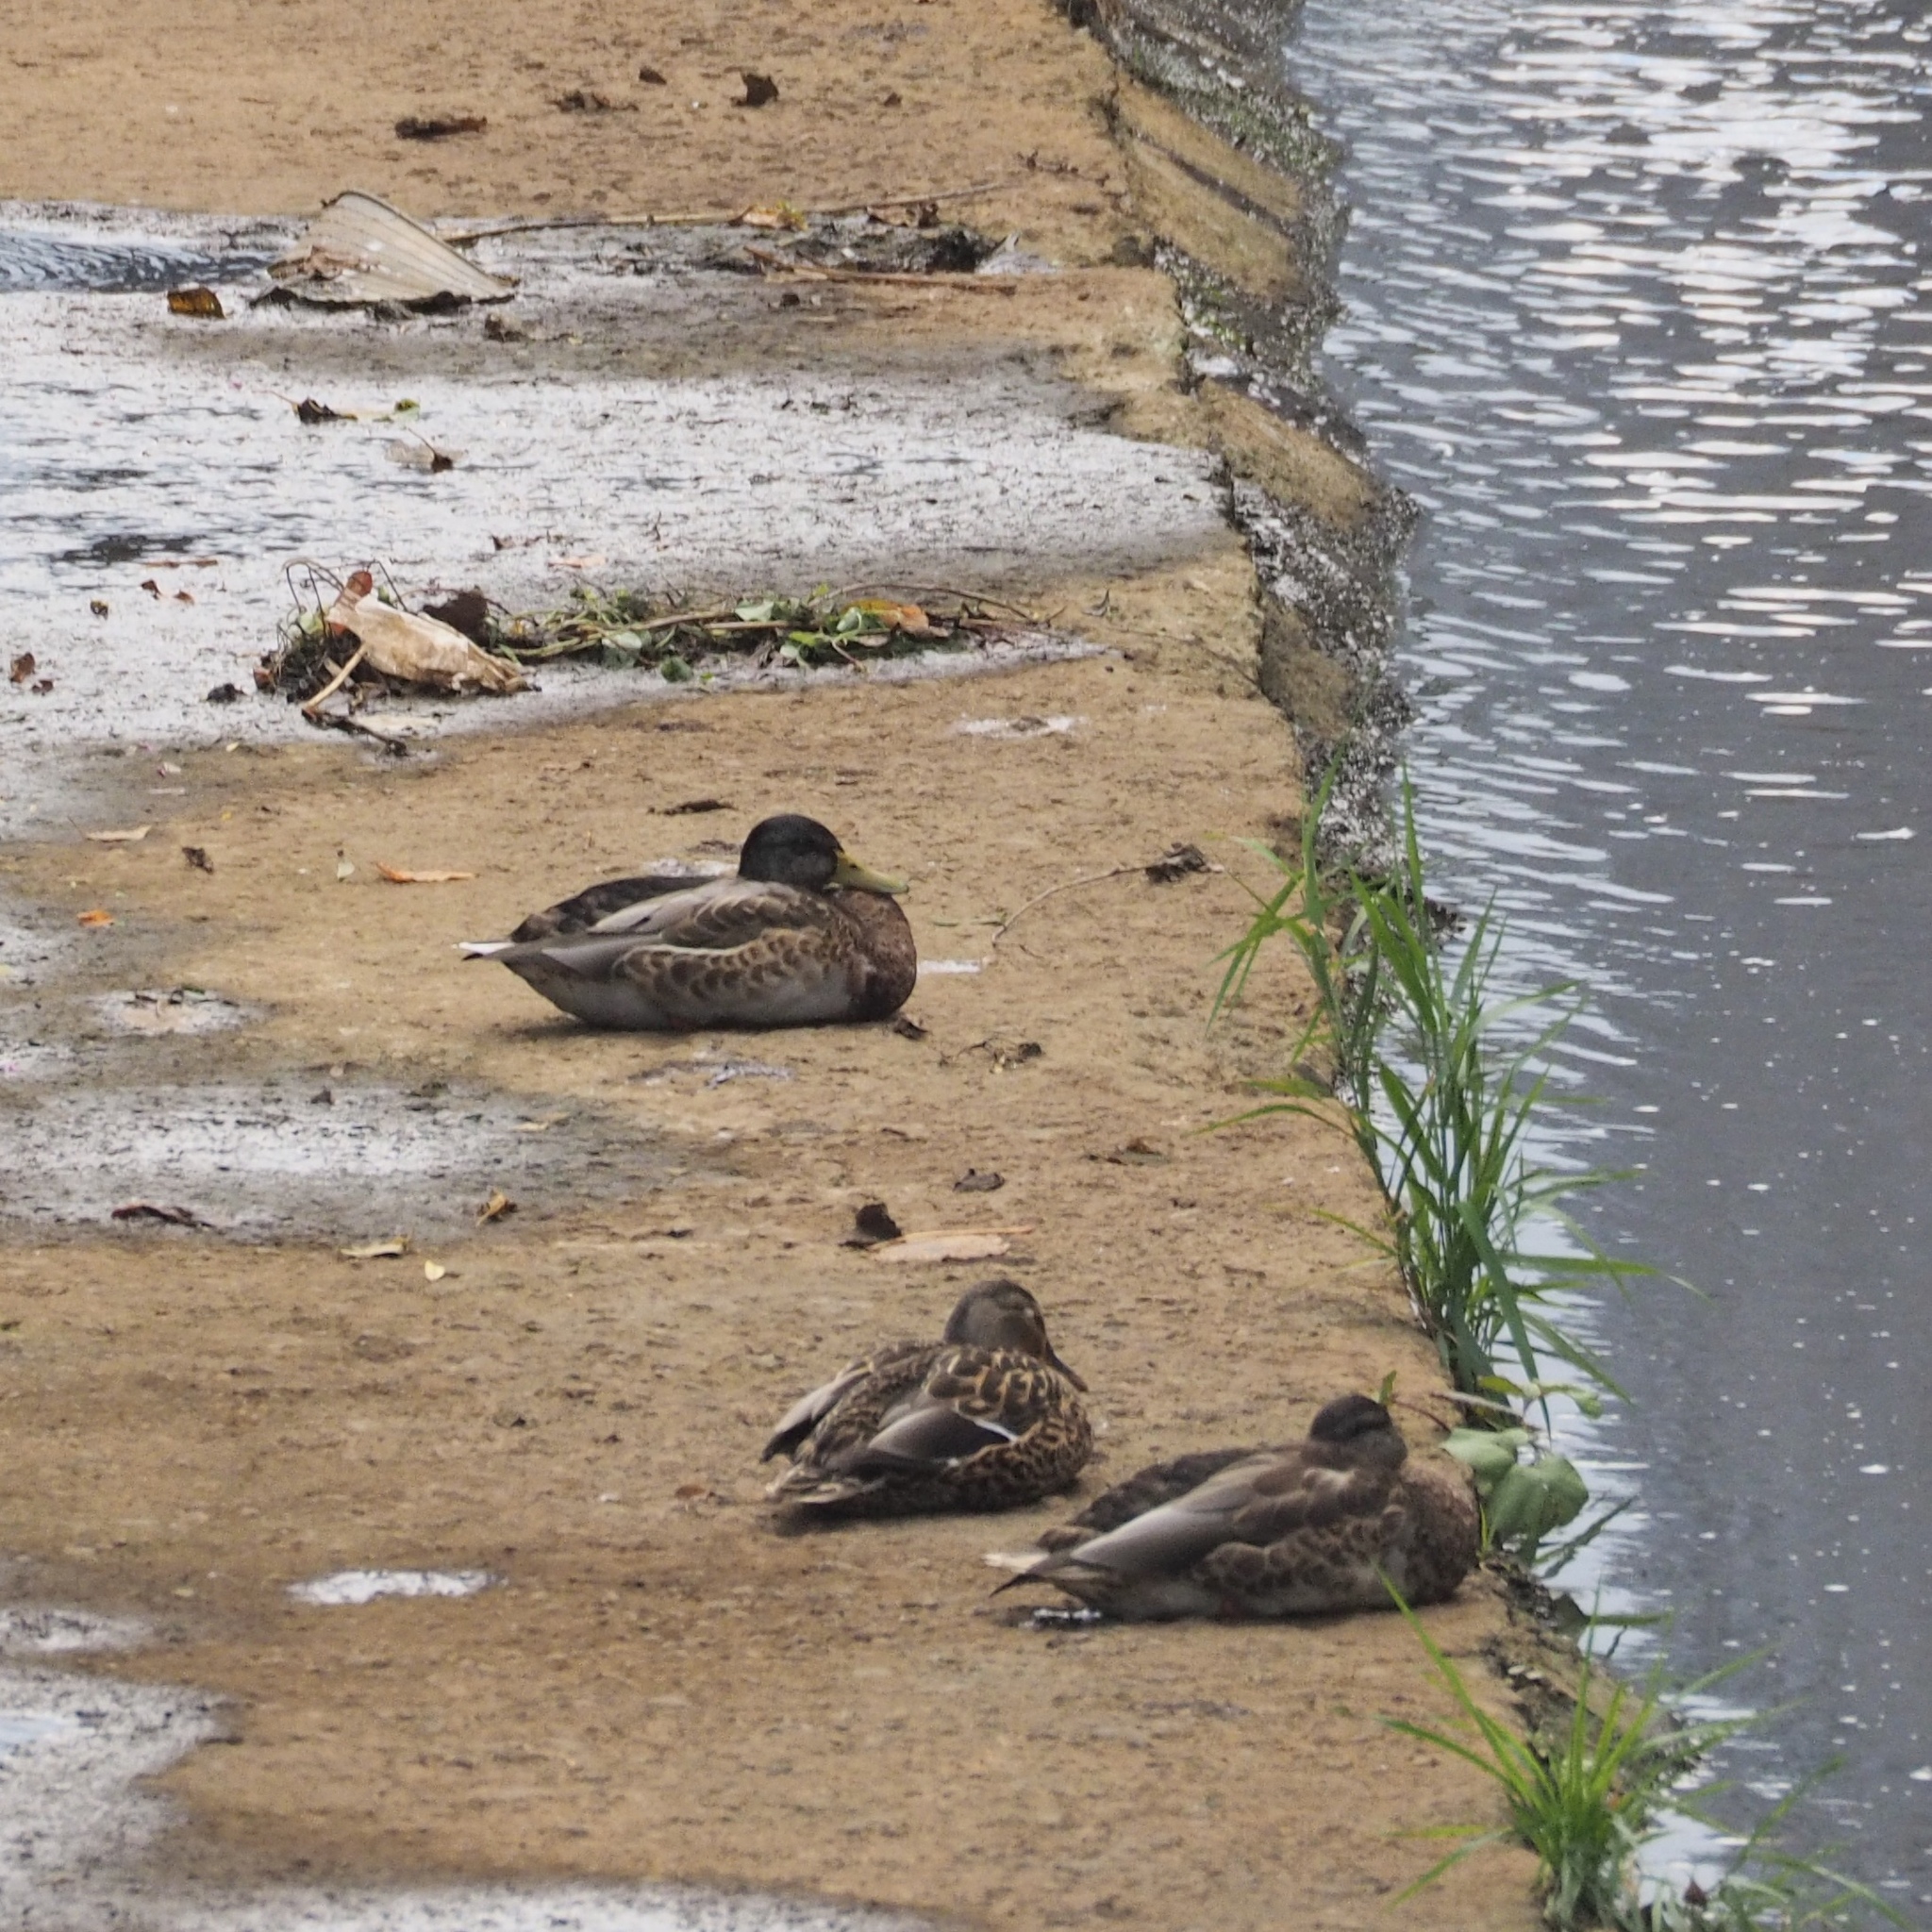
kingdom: Animalia
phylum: Chordata
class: Aves
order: Anseriformes
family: Anatidae
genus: Anas
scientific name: Anas platyrhynchos
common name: Mallard
